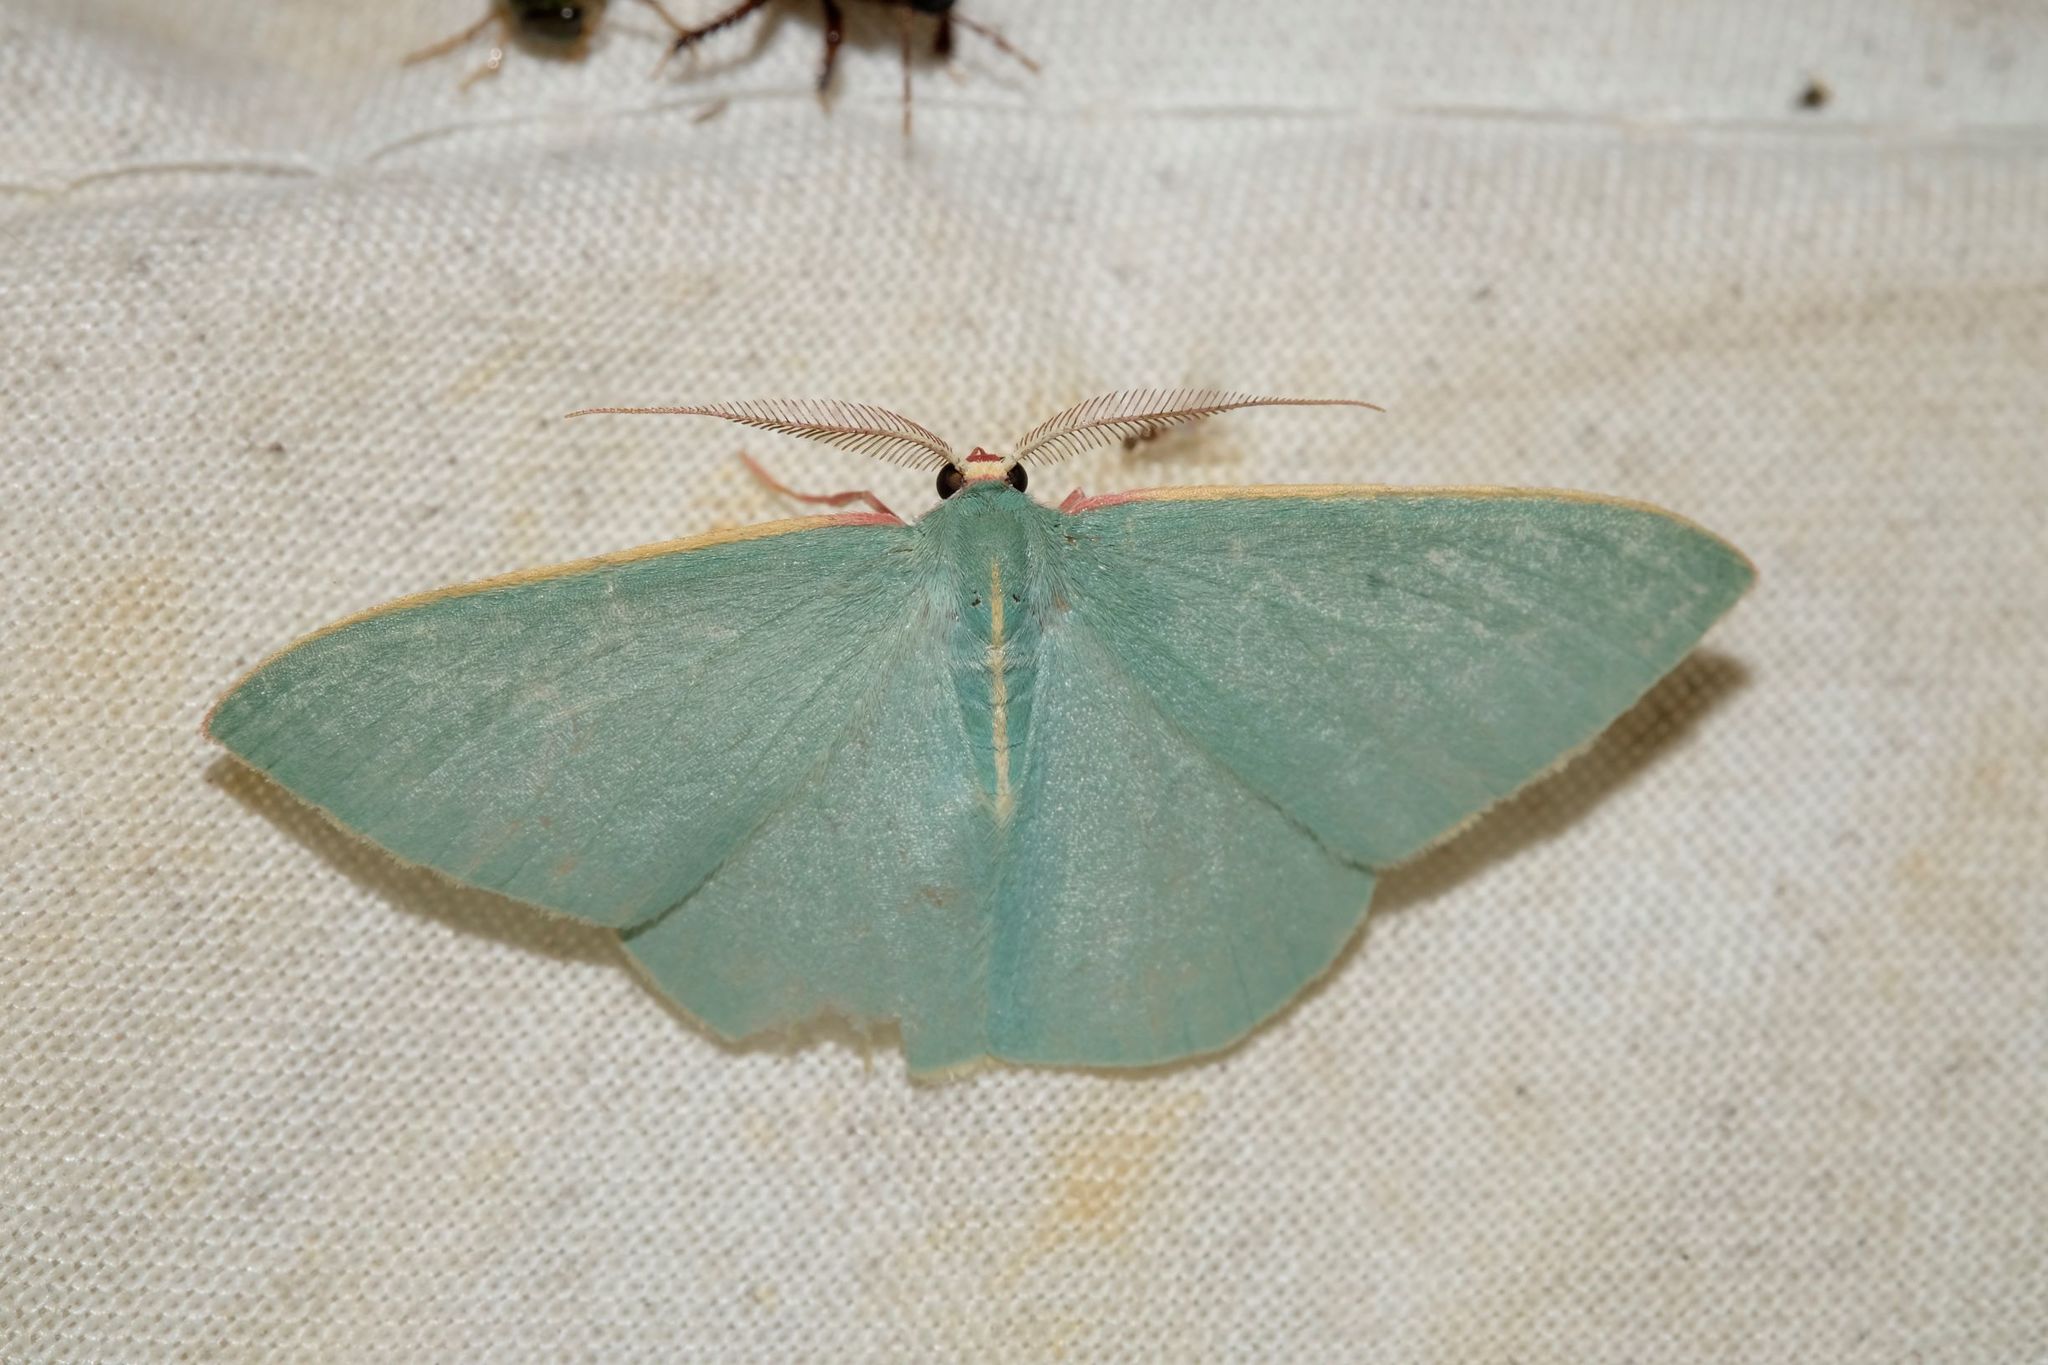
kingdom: Animalia
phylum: Arthropoda
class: Insecta
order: Lepidoptera
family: Geometridae
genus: Chlorocoma
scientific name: Chlorocoma assimilis
